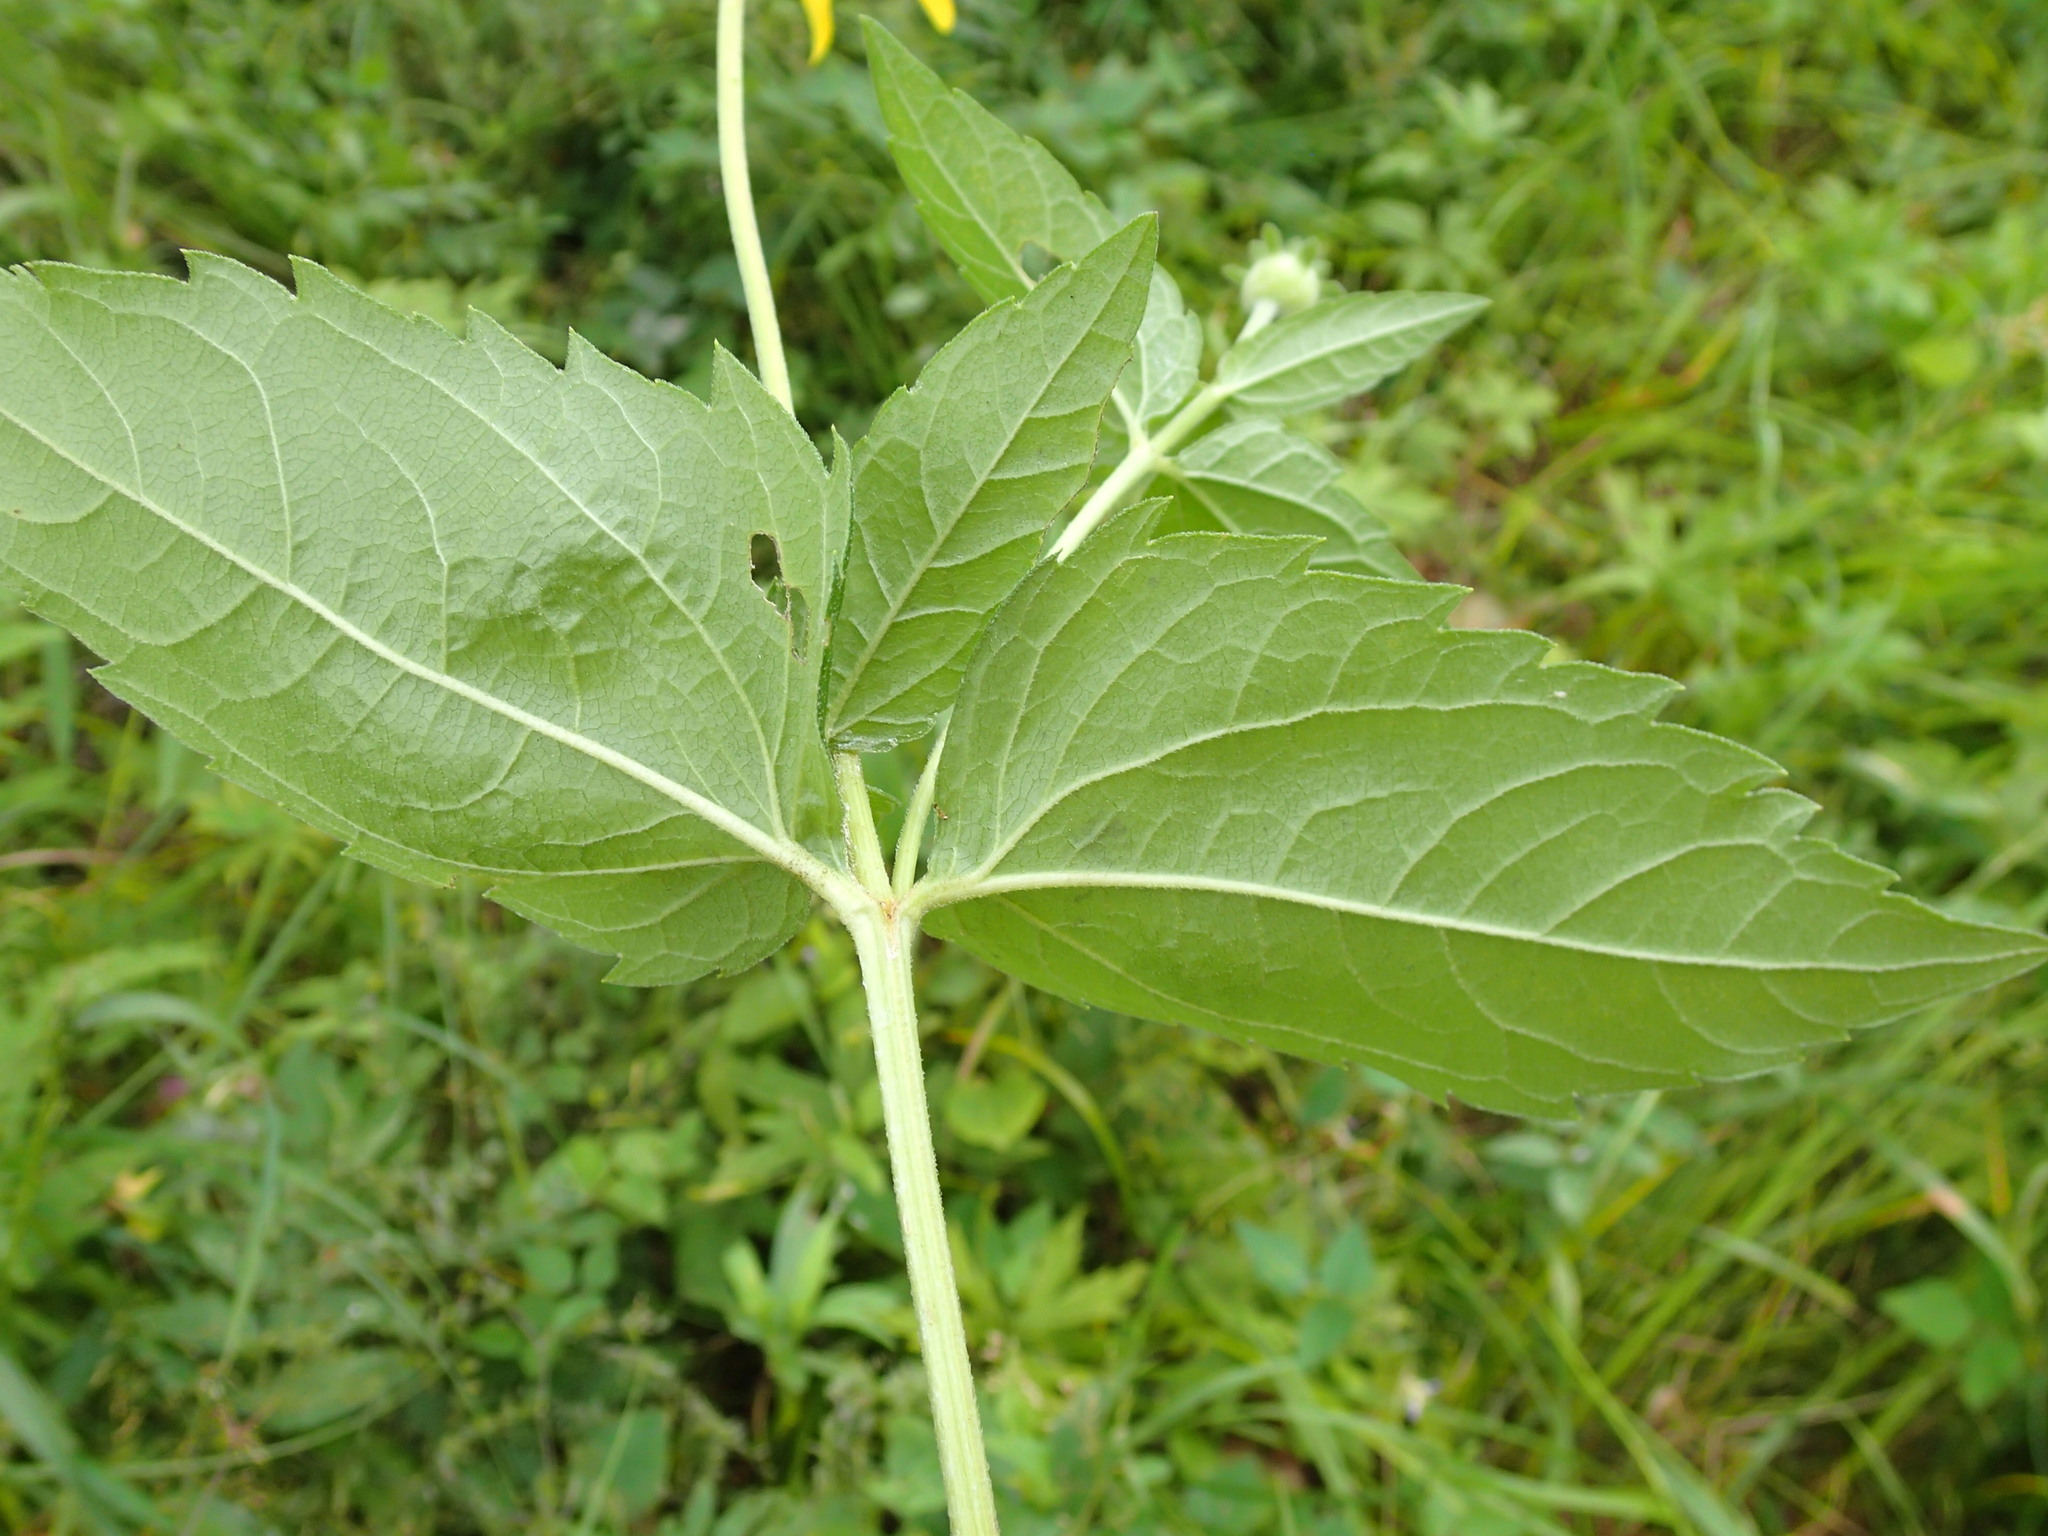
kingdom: Plantae
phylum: Tracheophyta
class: Magnoliopsida
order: Asterales
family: Asteraceae
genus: Heliopsis
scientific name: Heliopsis helianthoides
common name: False sunflower
